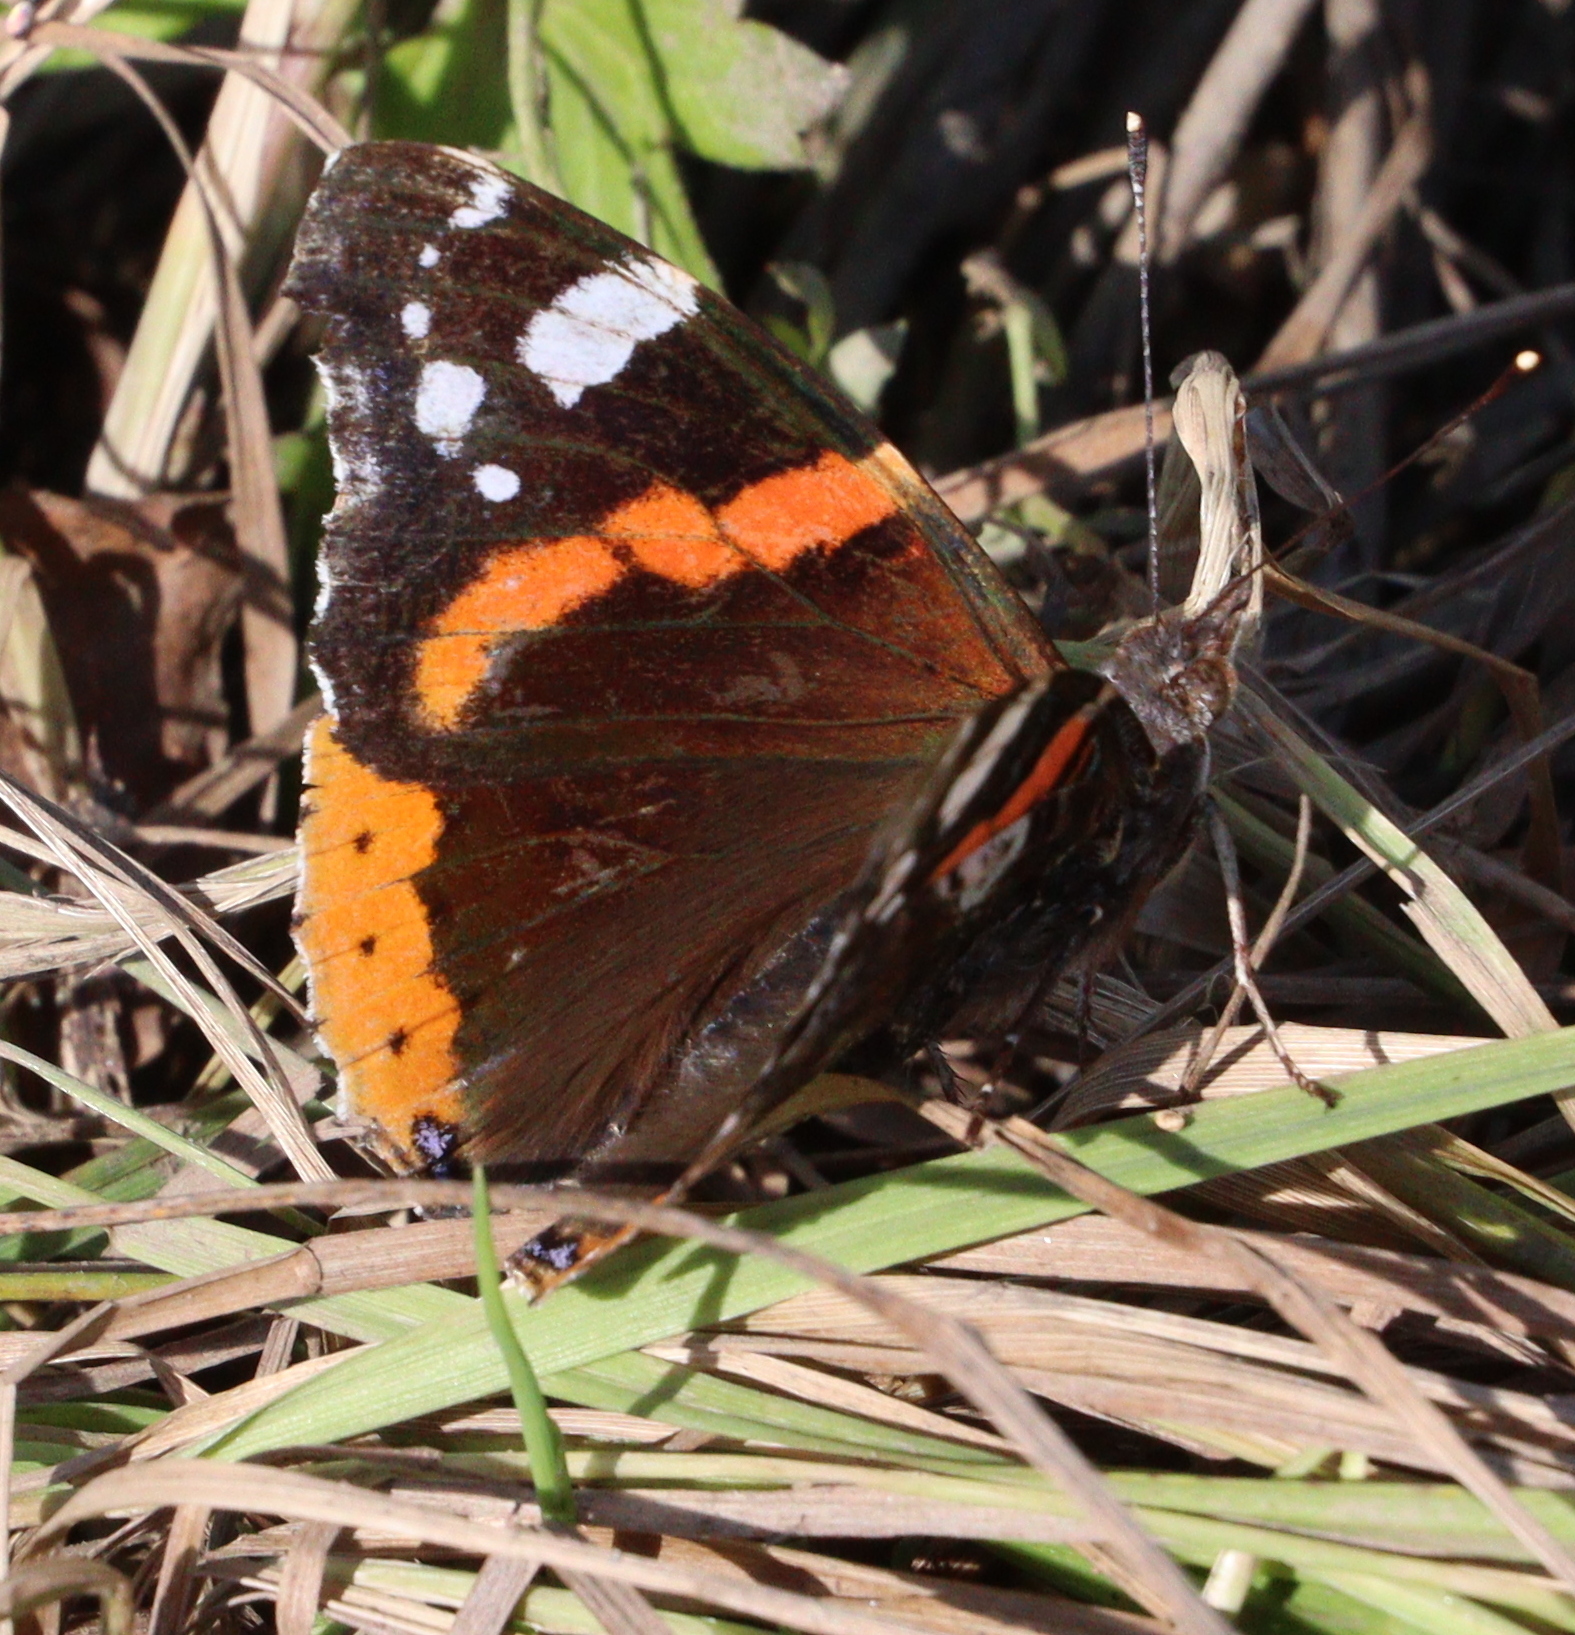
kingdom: Animalia
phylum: Arthropoda
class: Insecta
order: Lepidoptera
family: Nymphalidae
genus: Vanessa
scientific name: Vanessa atalanta
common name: Red admiral
